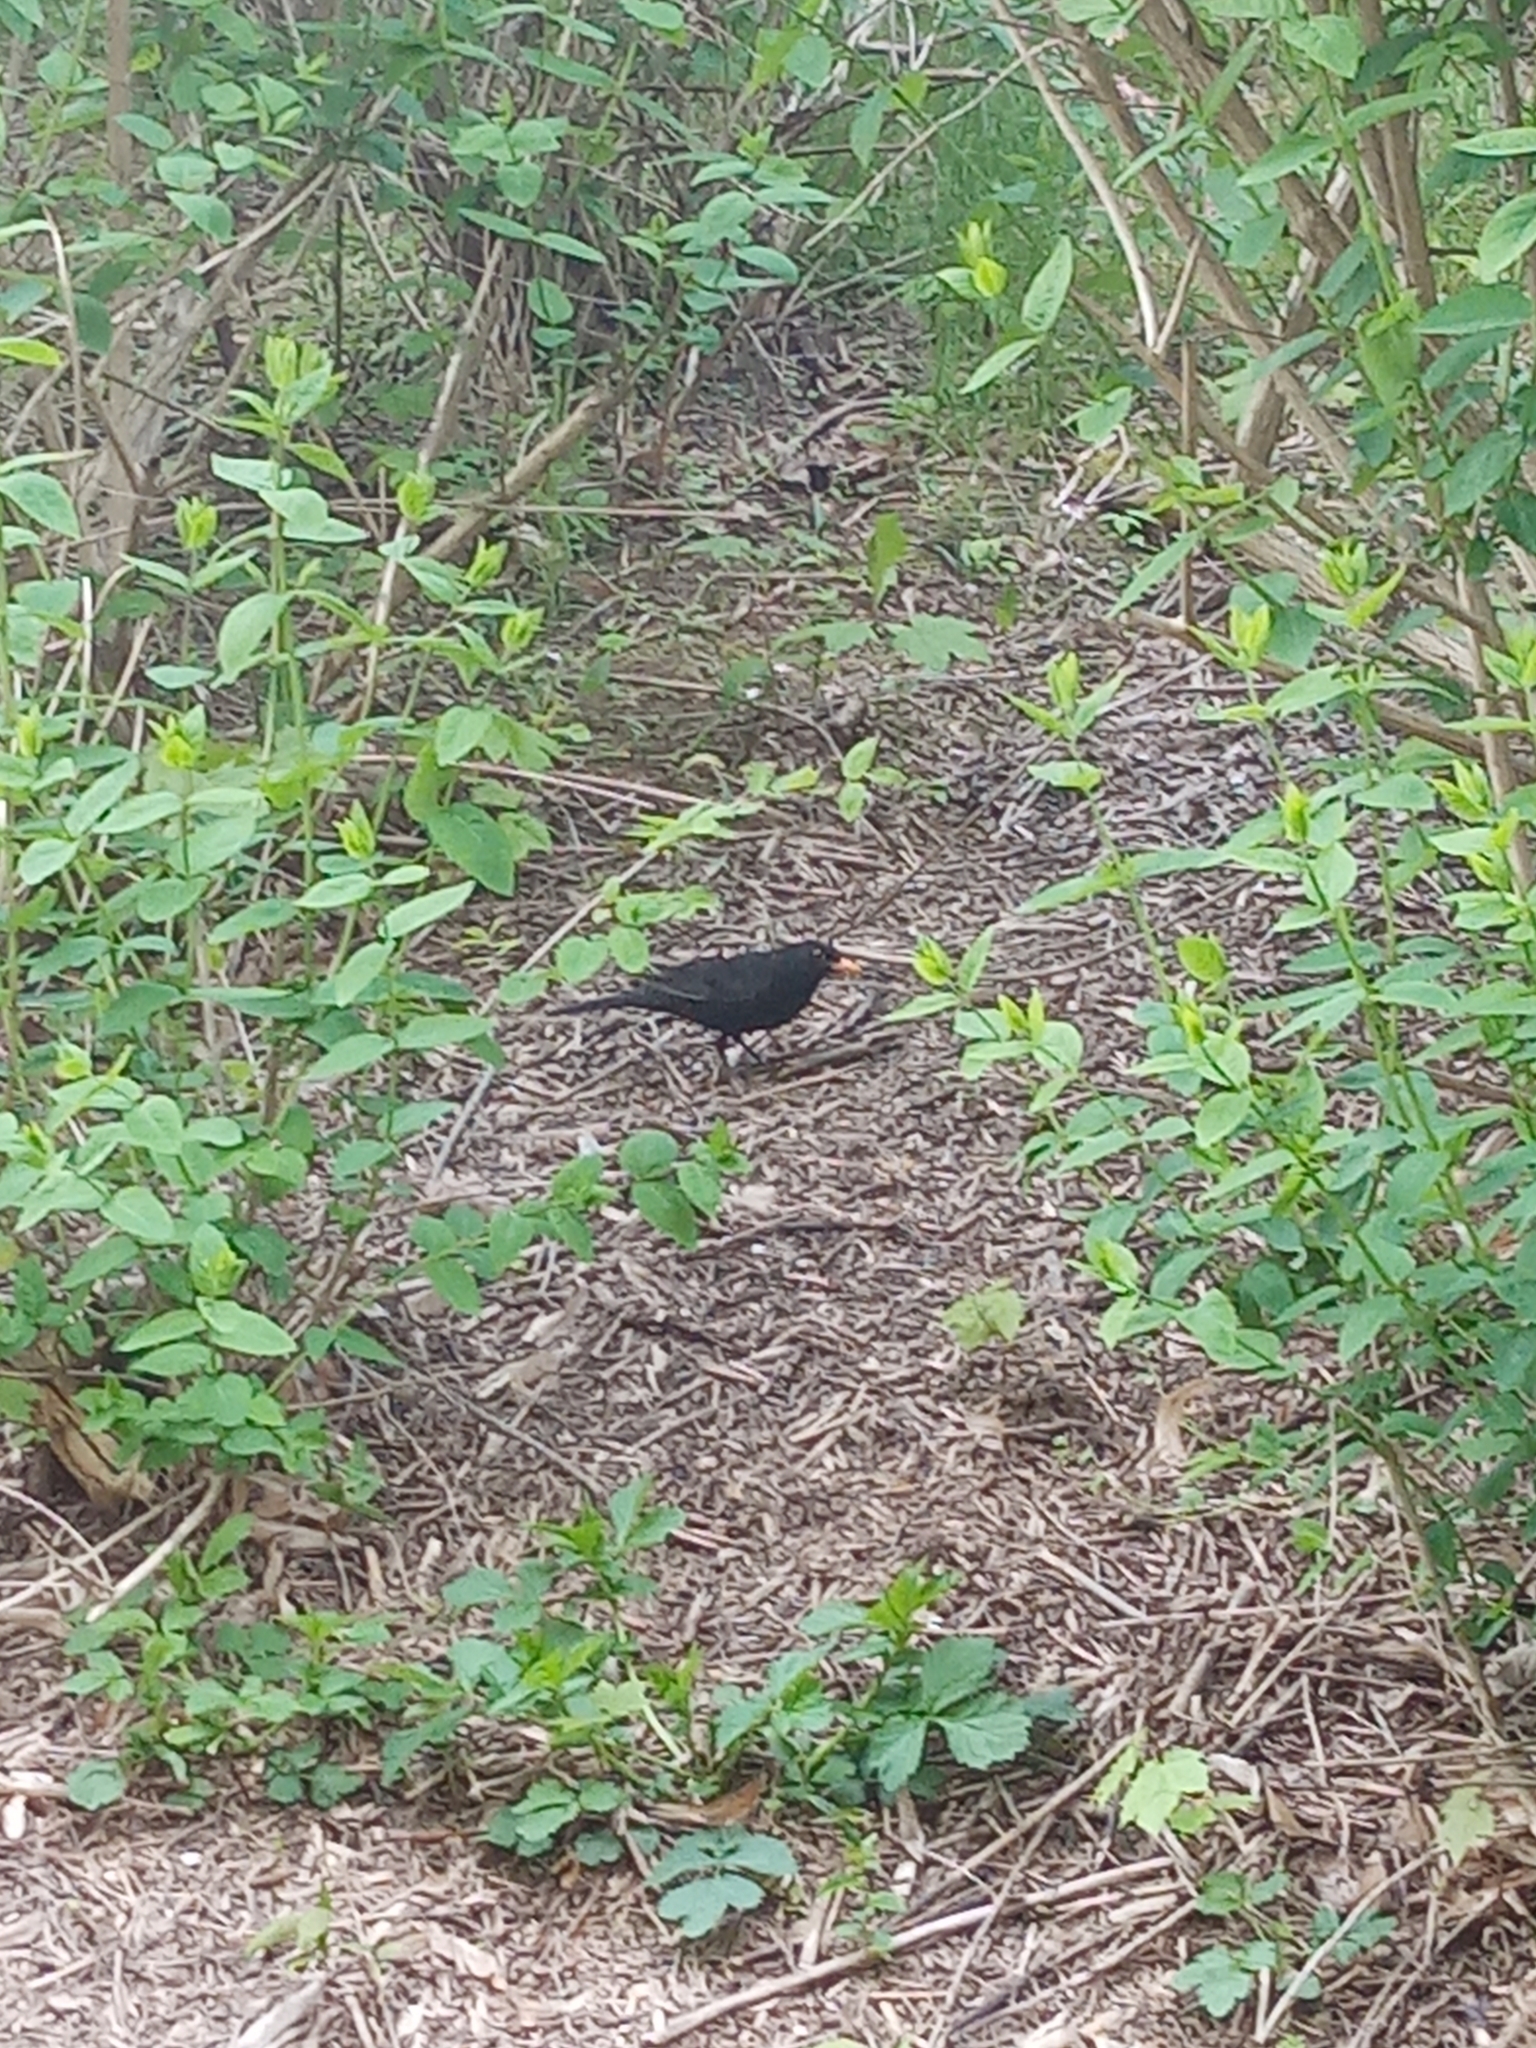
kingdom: Animalia
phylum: Chordata
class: Aves
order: Passeriformes
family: Turdidae
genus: Turdus
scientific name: Turdus merula
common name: Common blackbird
